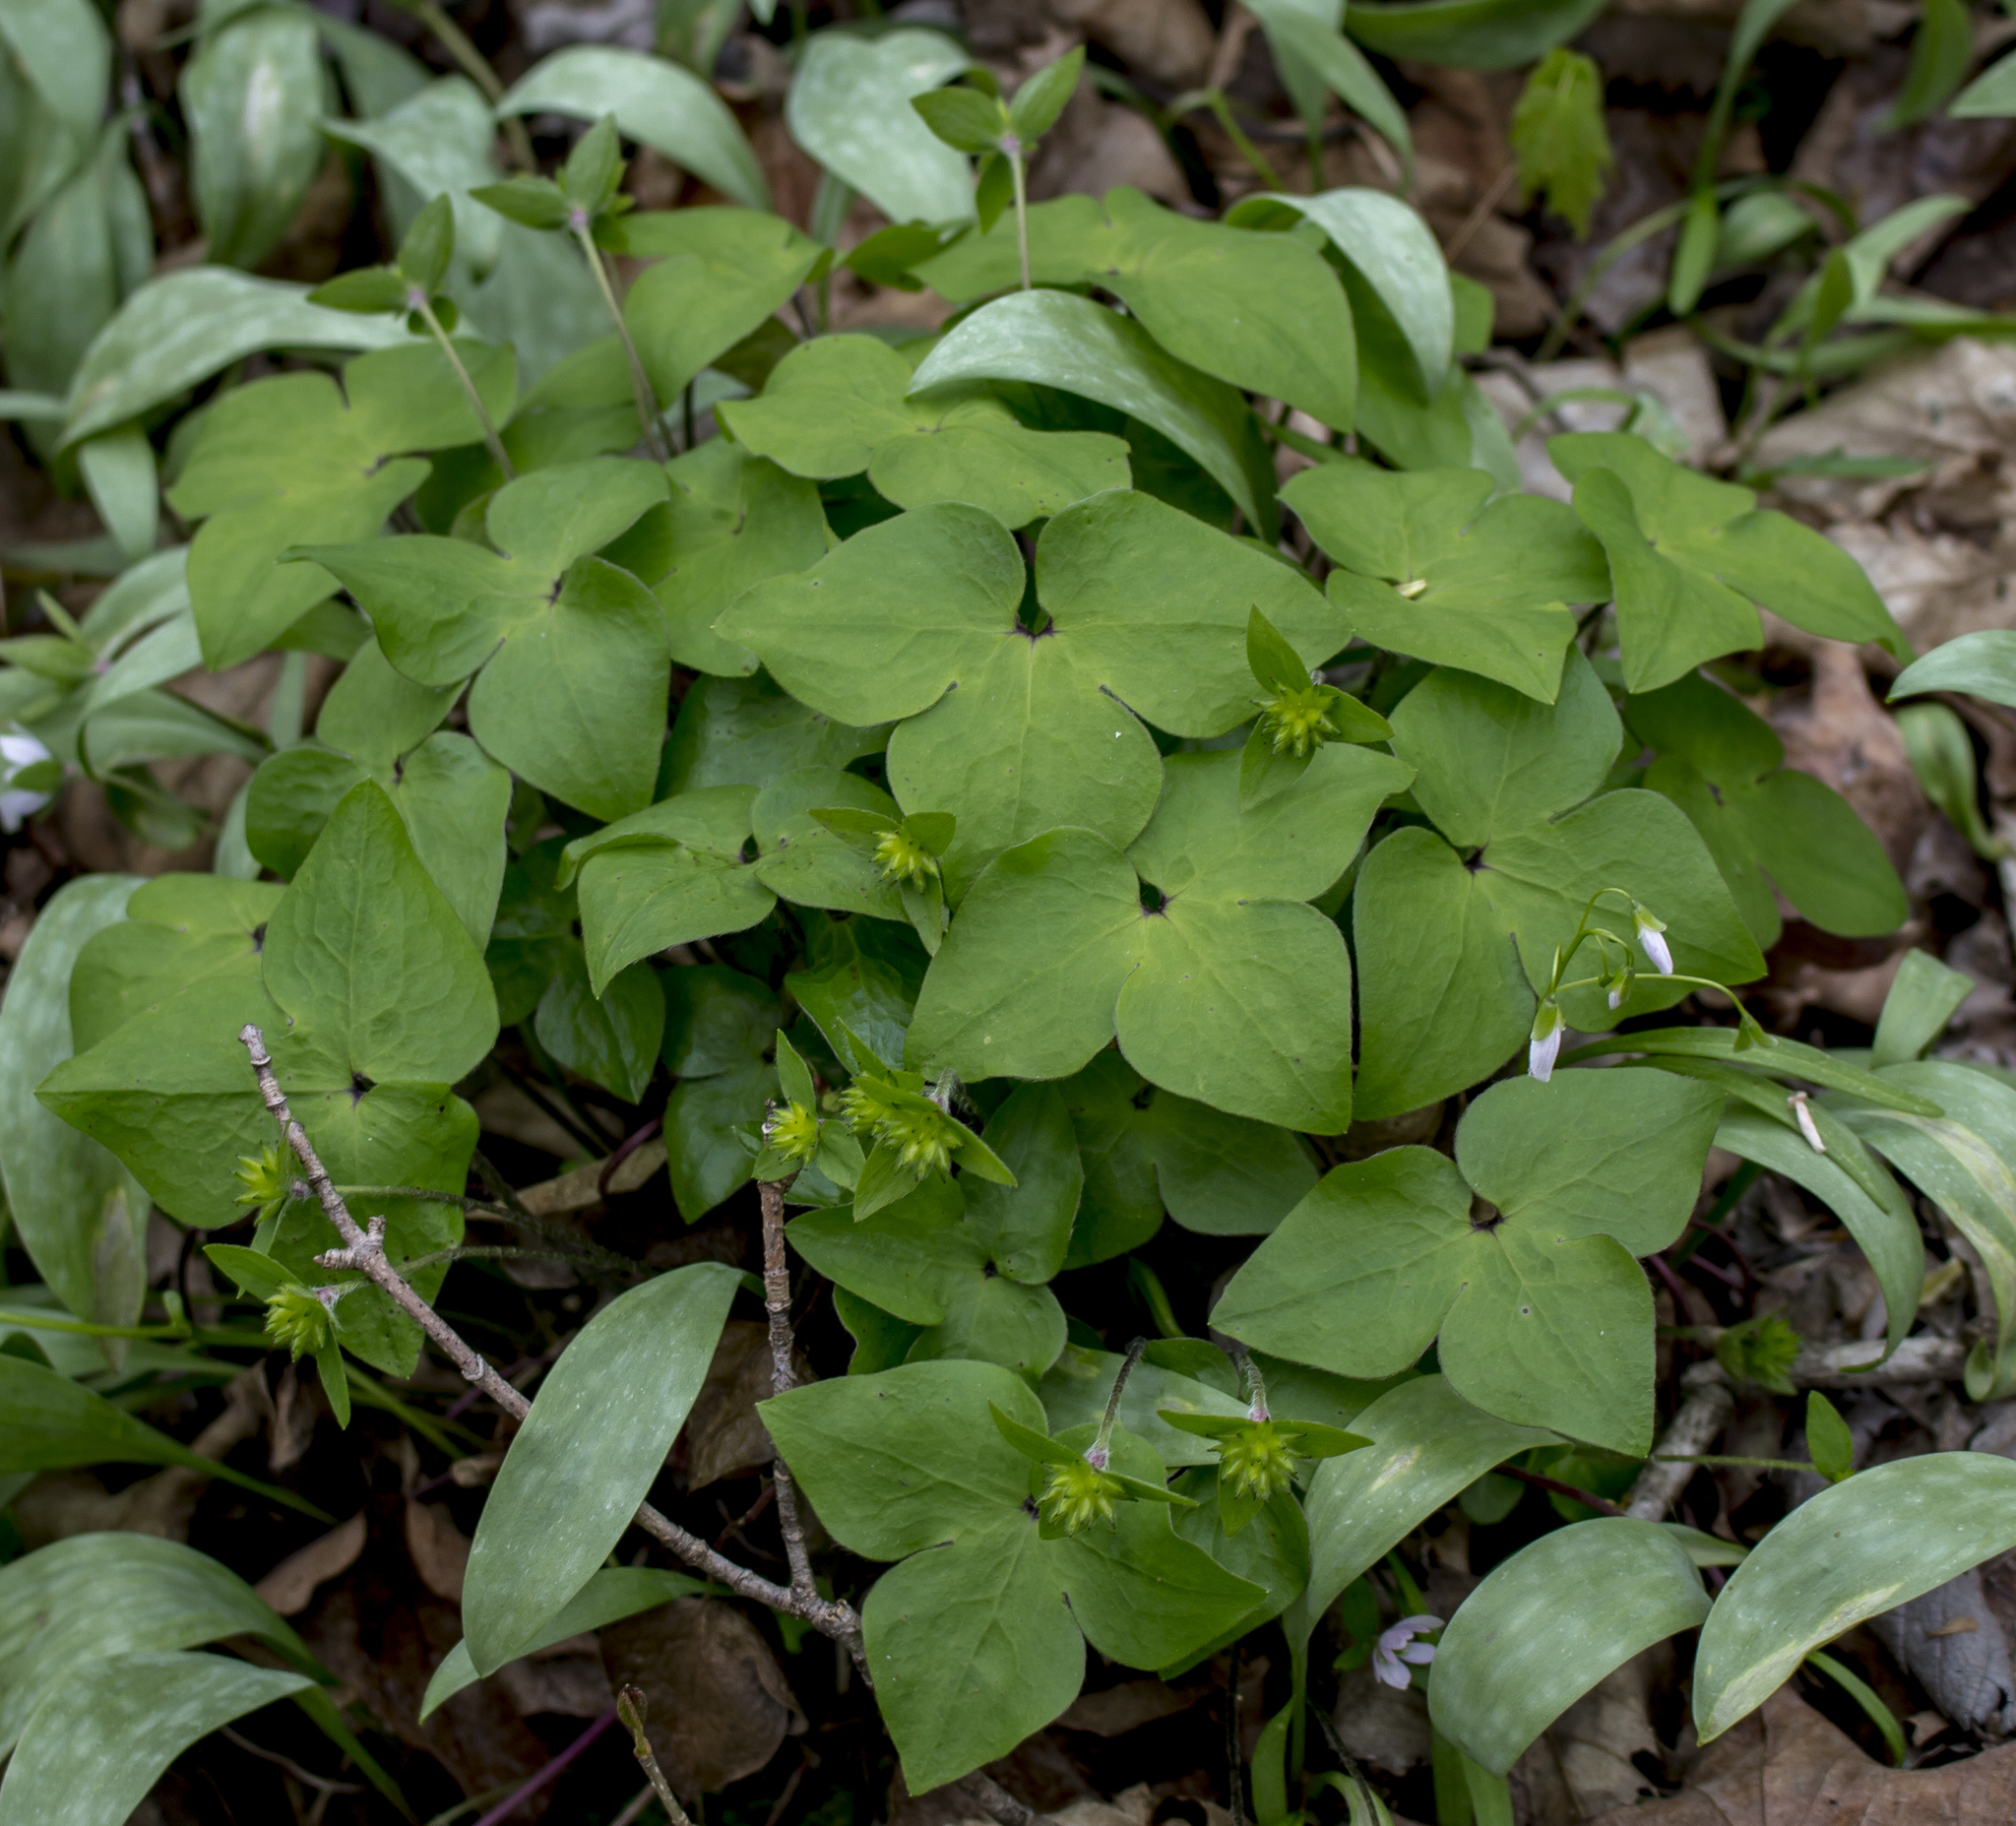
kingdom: Plantae
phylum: Tracheophyta
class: Magnoliopsida
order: Ranunculales
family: Ranunculaceae
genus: Hepatica
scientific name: Hepatica acutiloba
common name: Sharp-lobed hepatica
